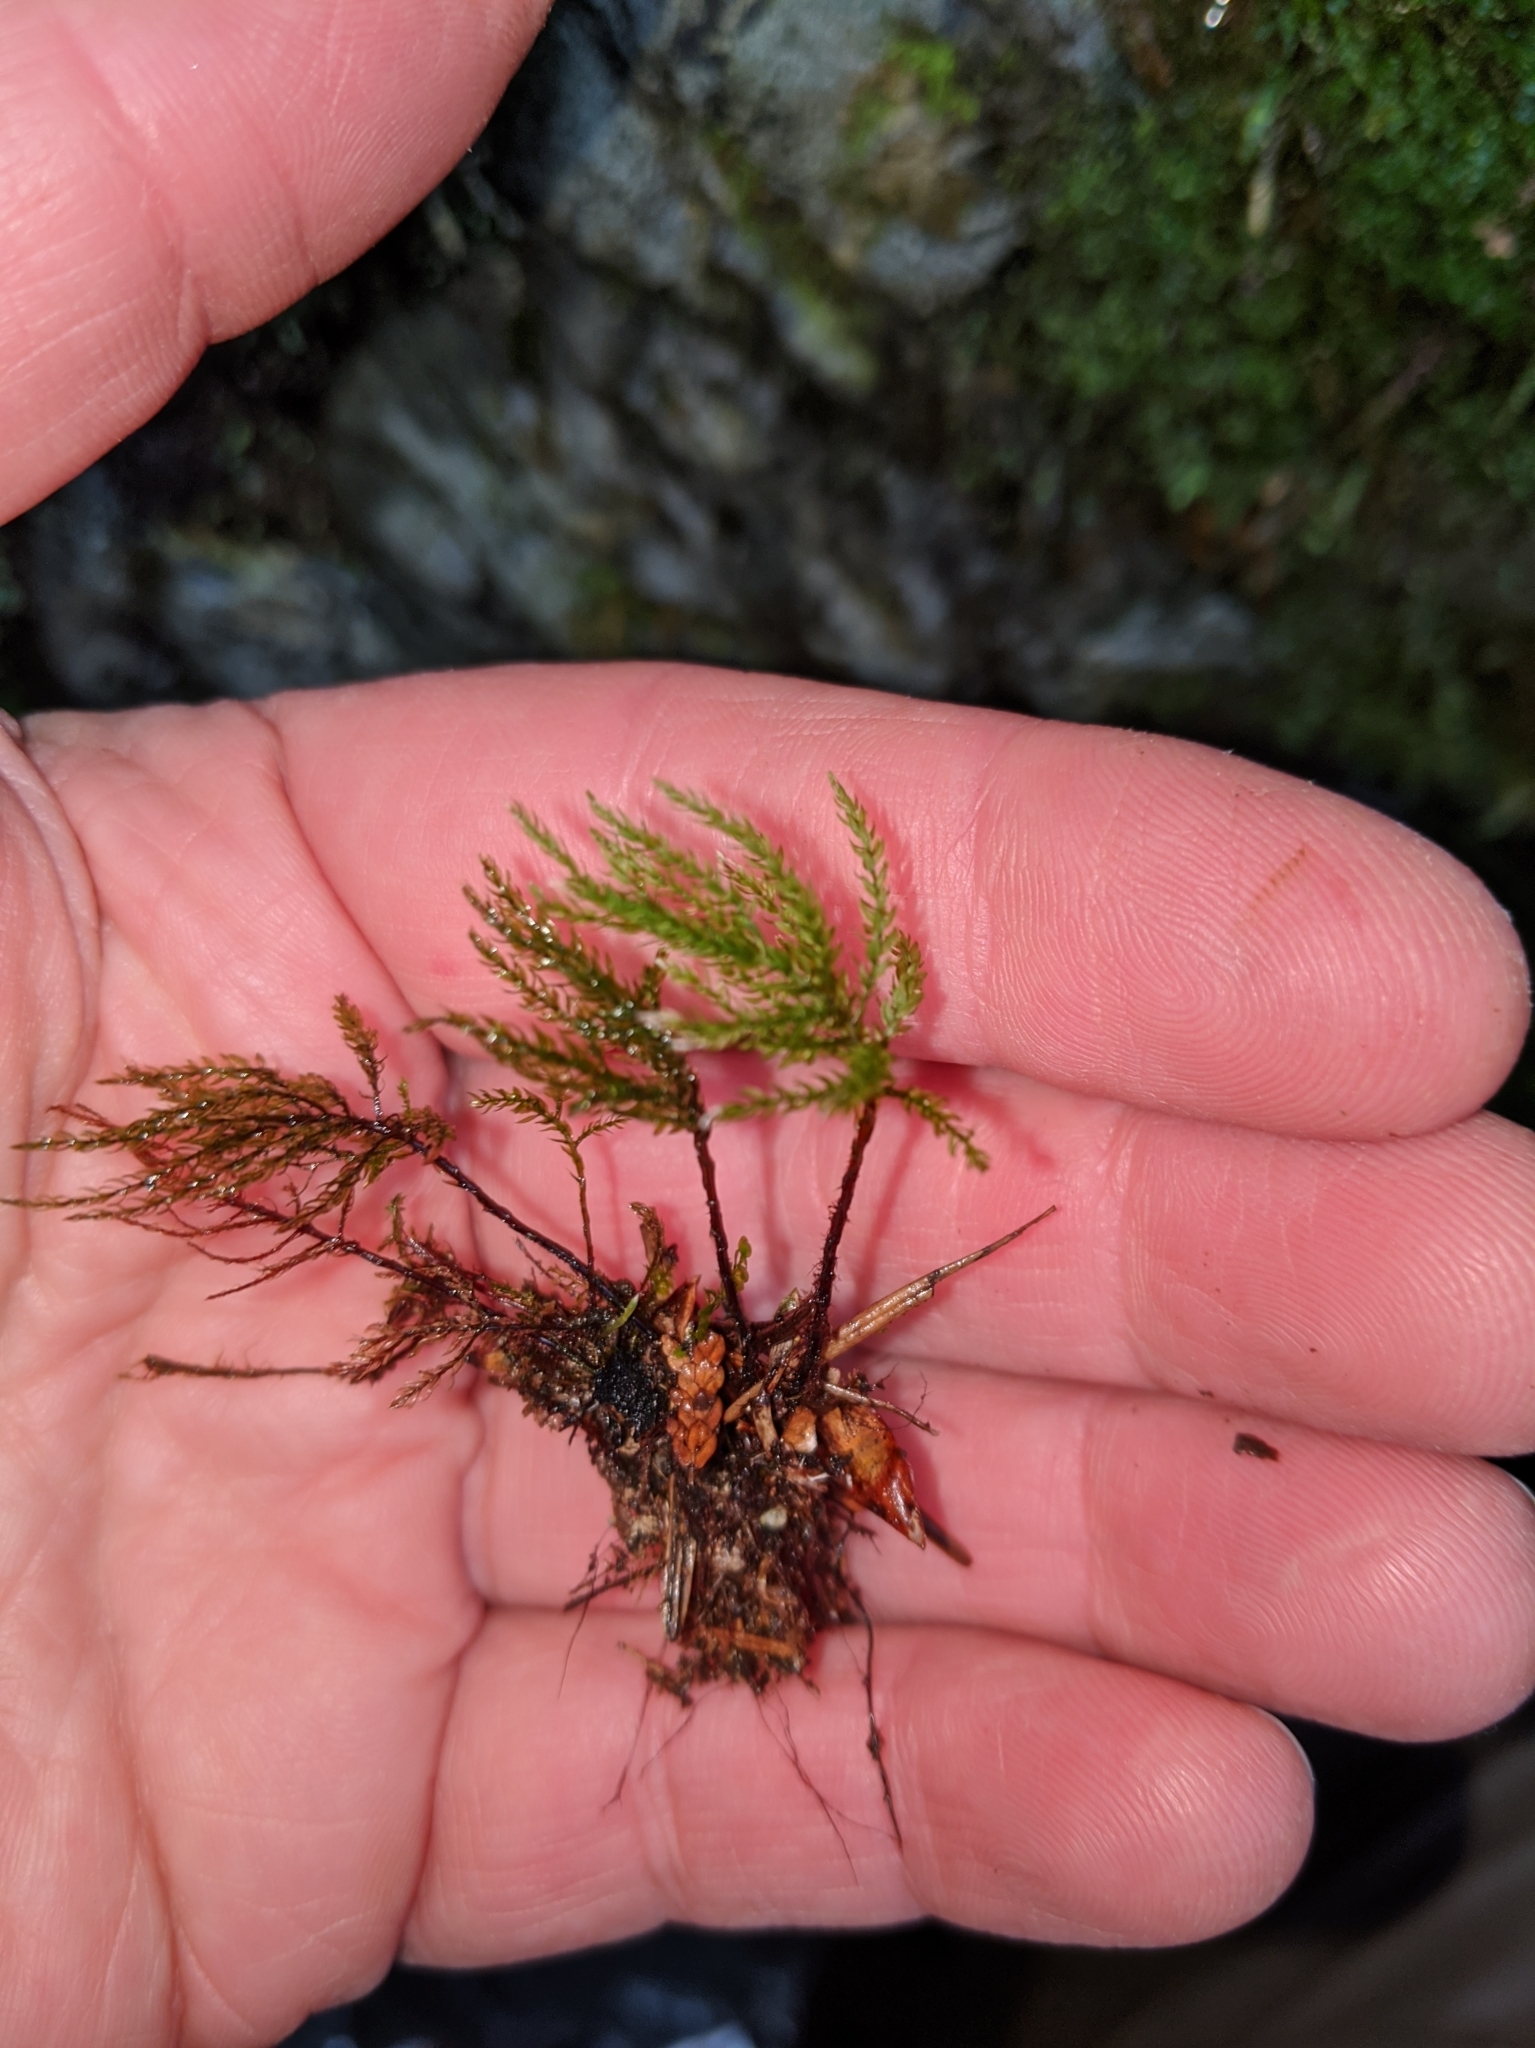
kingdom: Plantae
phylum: Bryophyta
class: Bryopsida
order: Bryales
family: Mniaceae
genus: Leucolepis
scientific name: Leucolepis acanthoneura
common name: Leucolepis umbrella moss
